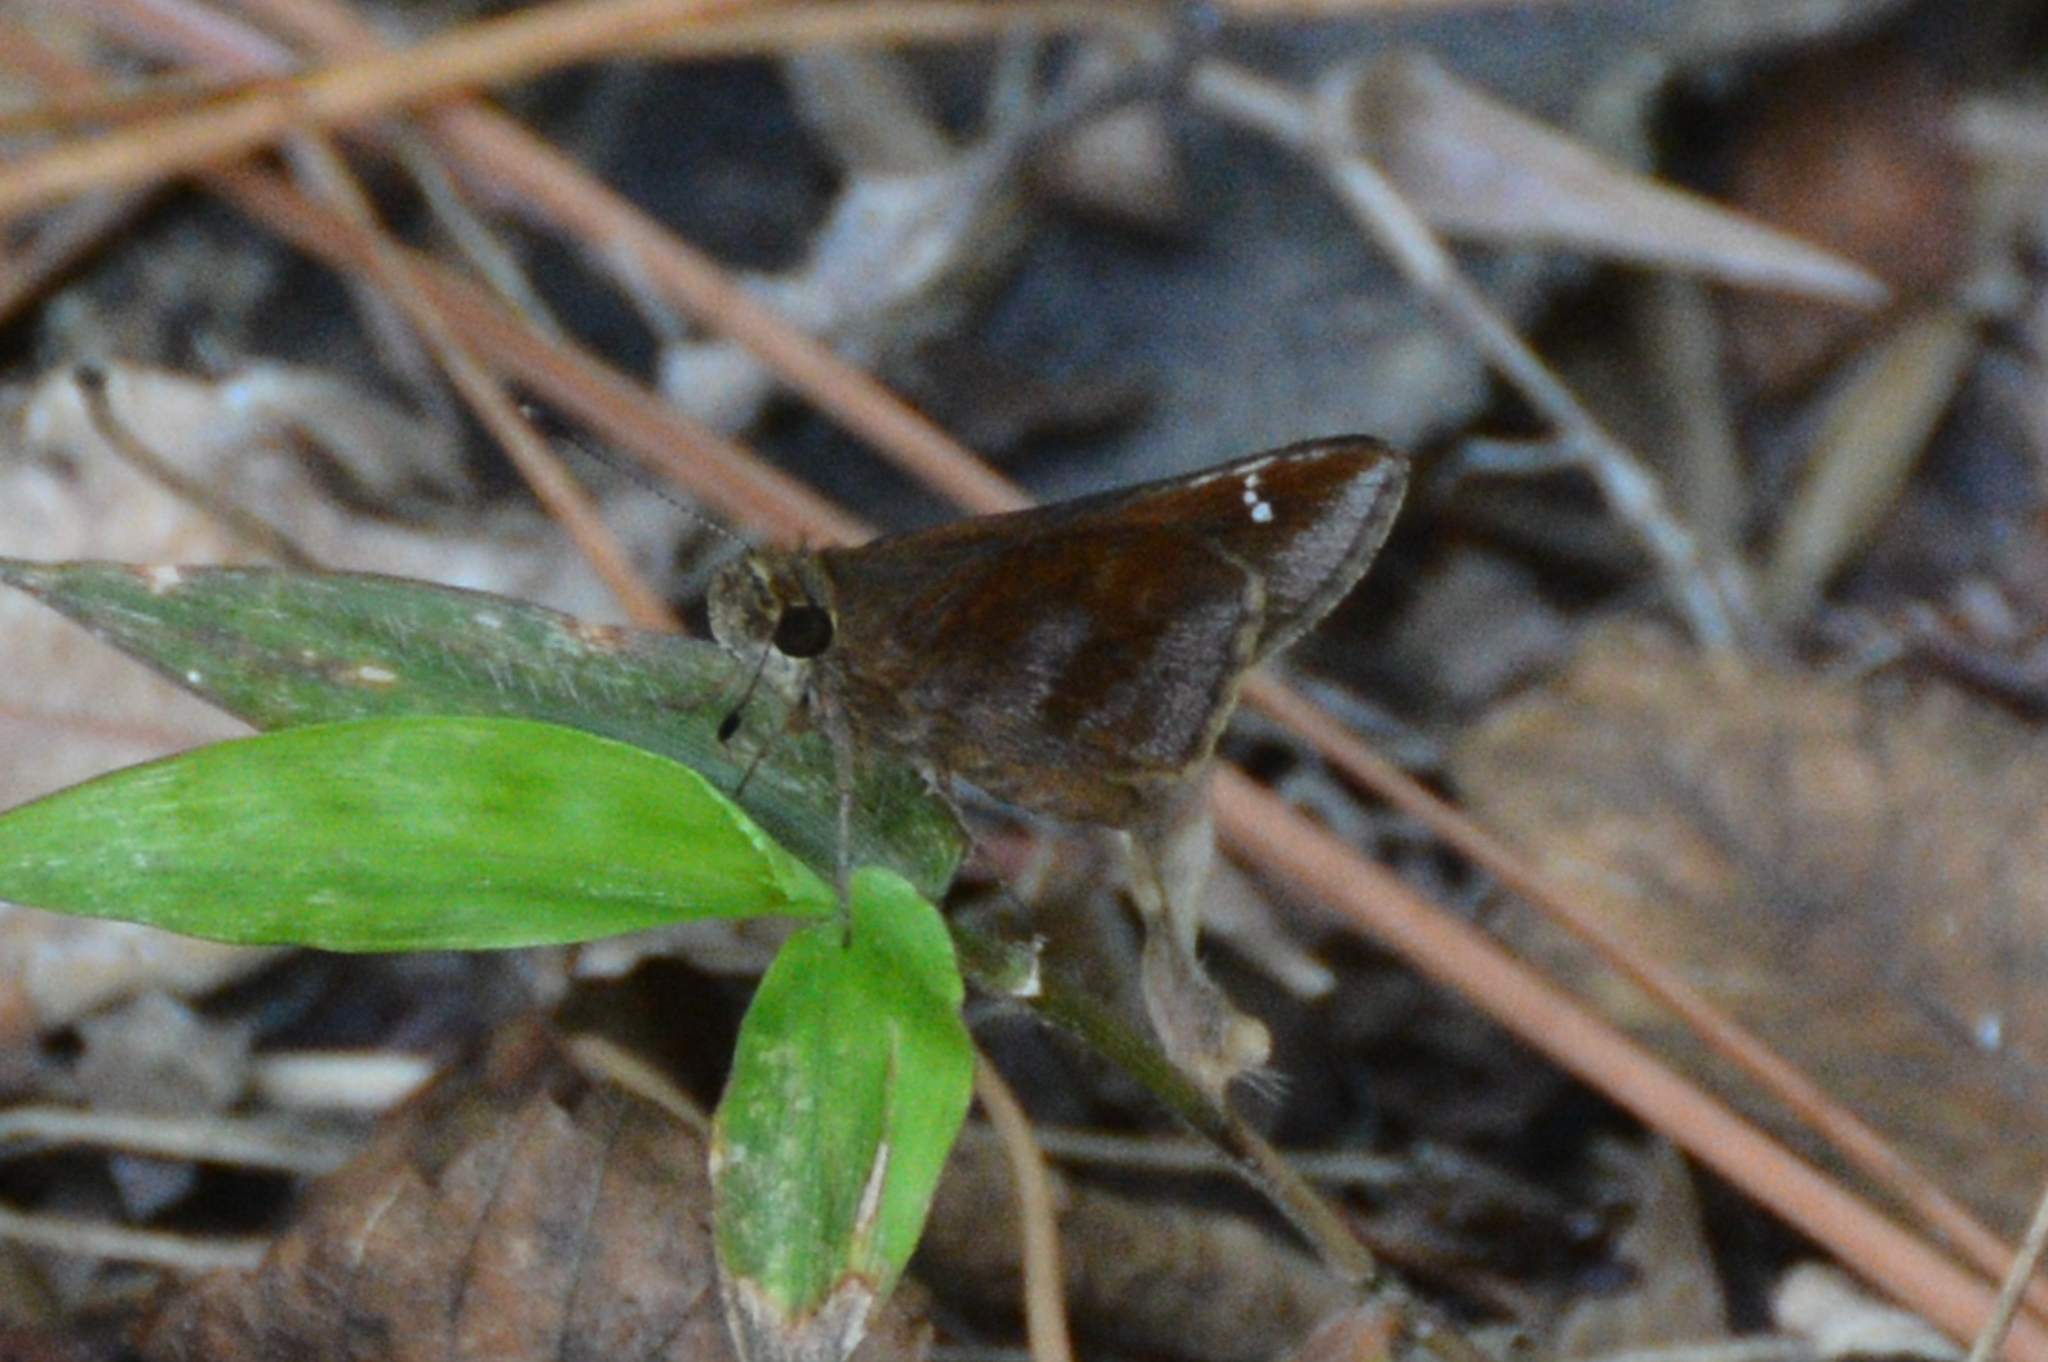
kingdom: Animalia
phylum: Arthropoda
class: Insecta
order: Lepidoptera
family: Hesperiidae
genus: Lerema
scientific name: Lerema accius
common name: Clouded skipper
